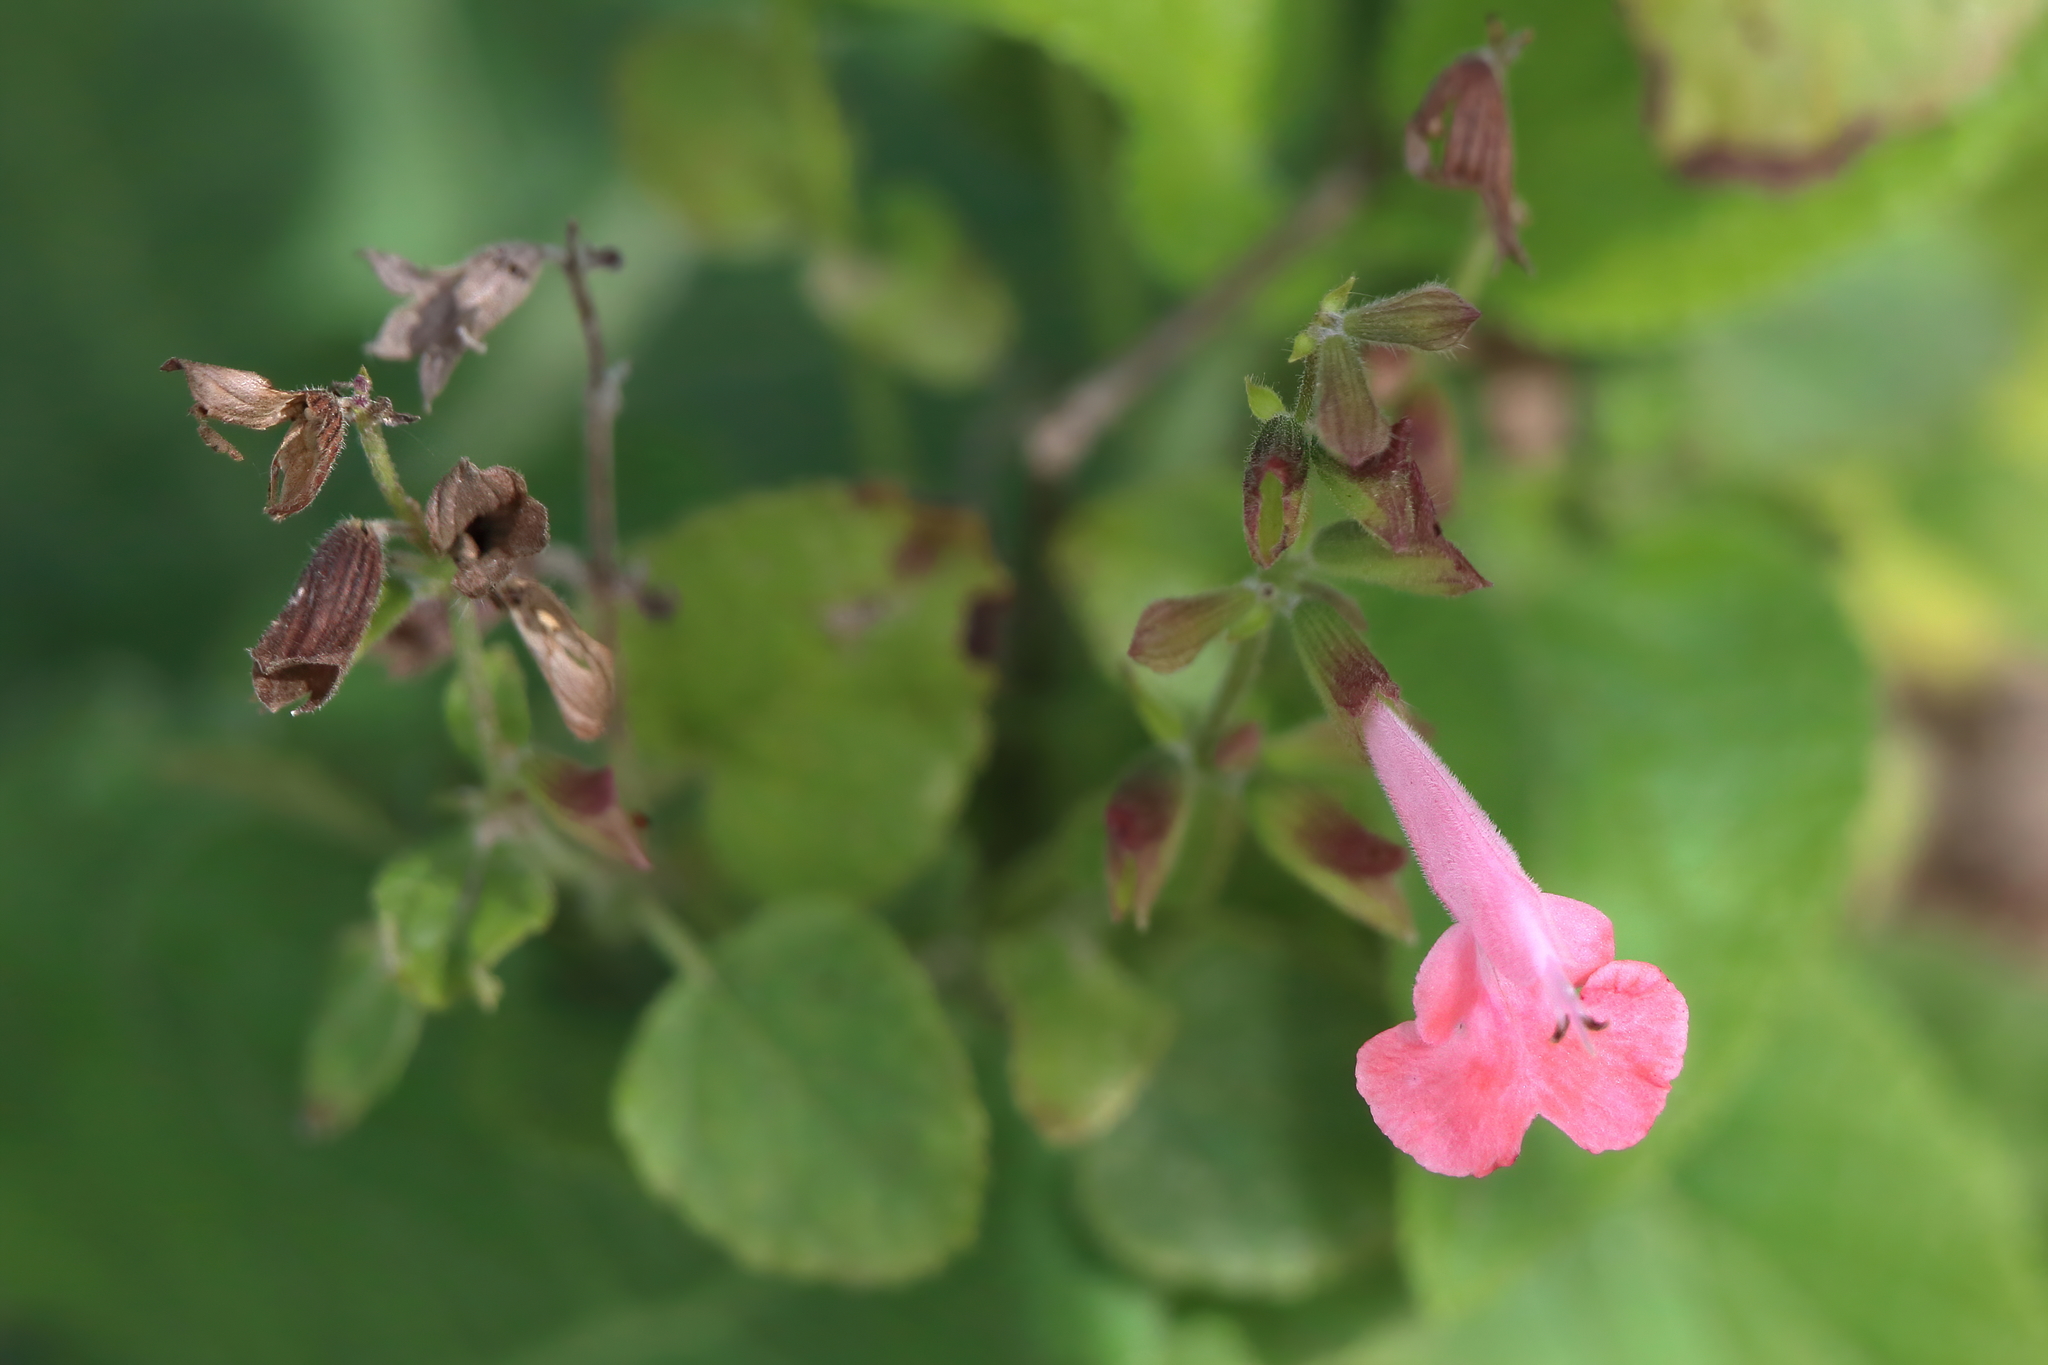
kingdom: Plantae
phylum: Tracheophyta
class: Magnoliopsida
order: Lamiales
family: Lamiaceae
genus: Salvia
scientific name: Salvia coccinea
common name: Blood sage
